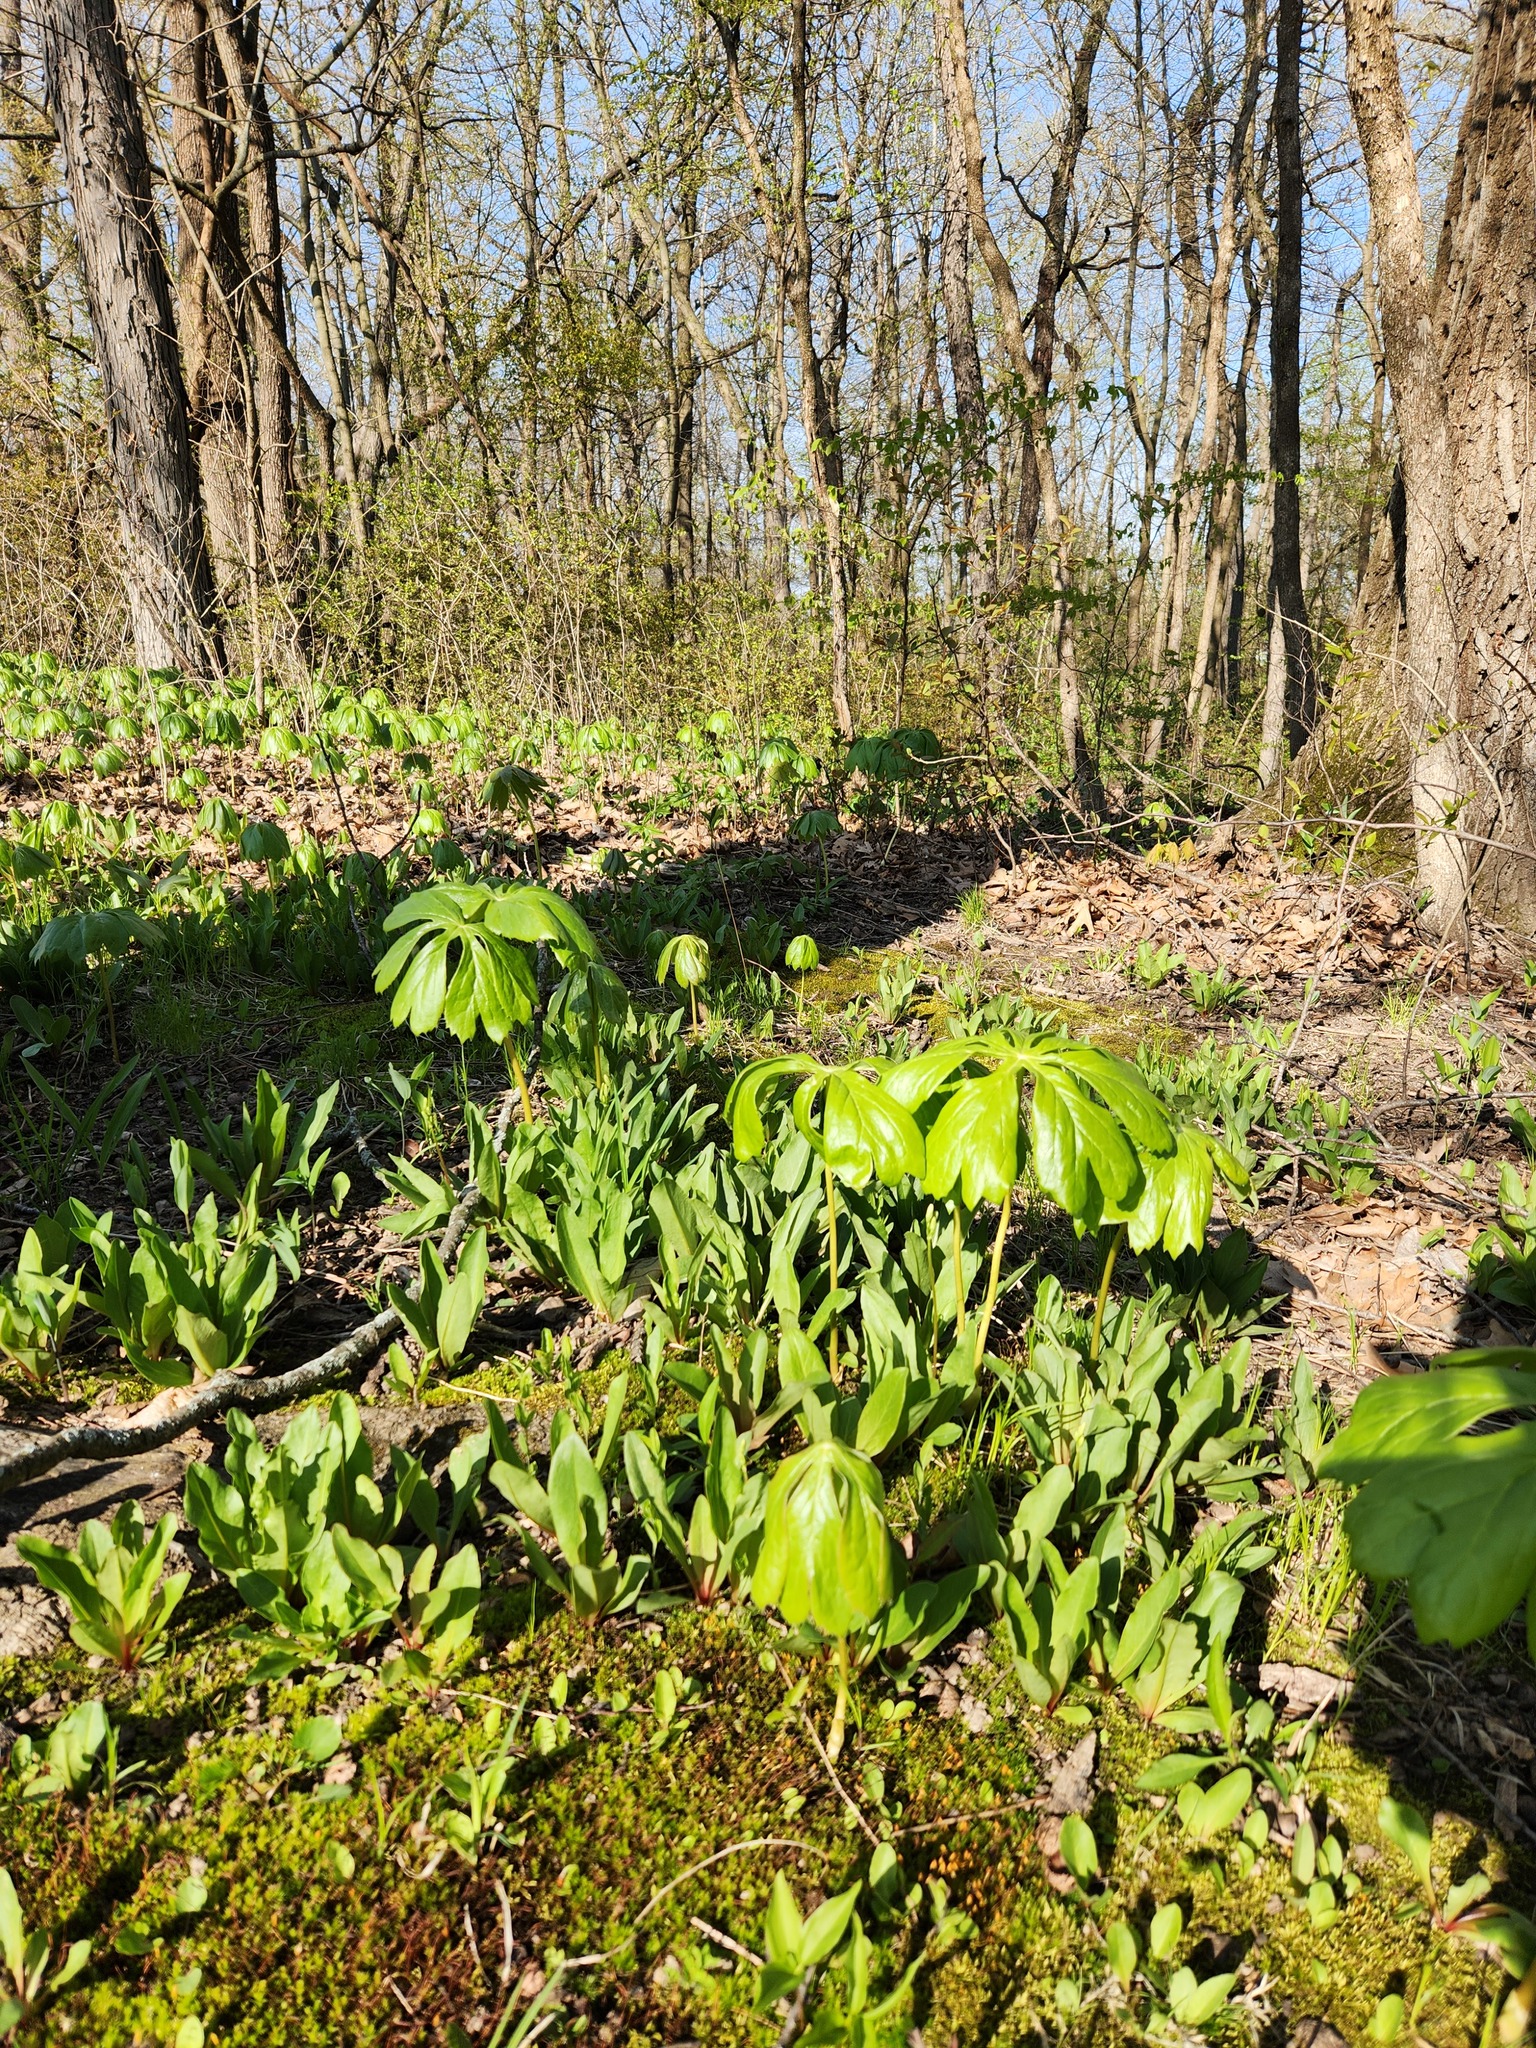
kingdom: Plantae
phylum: Tracheophyta
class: Magnoliopsida
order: Ranunculales
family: Berberidaceae
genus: Podophyllum
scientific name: Podophyllum peltatum
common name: Wild mandrake
